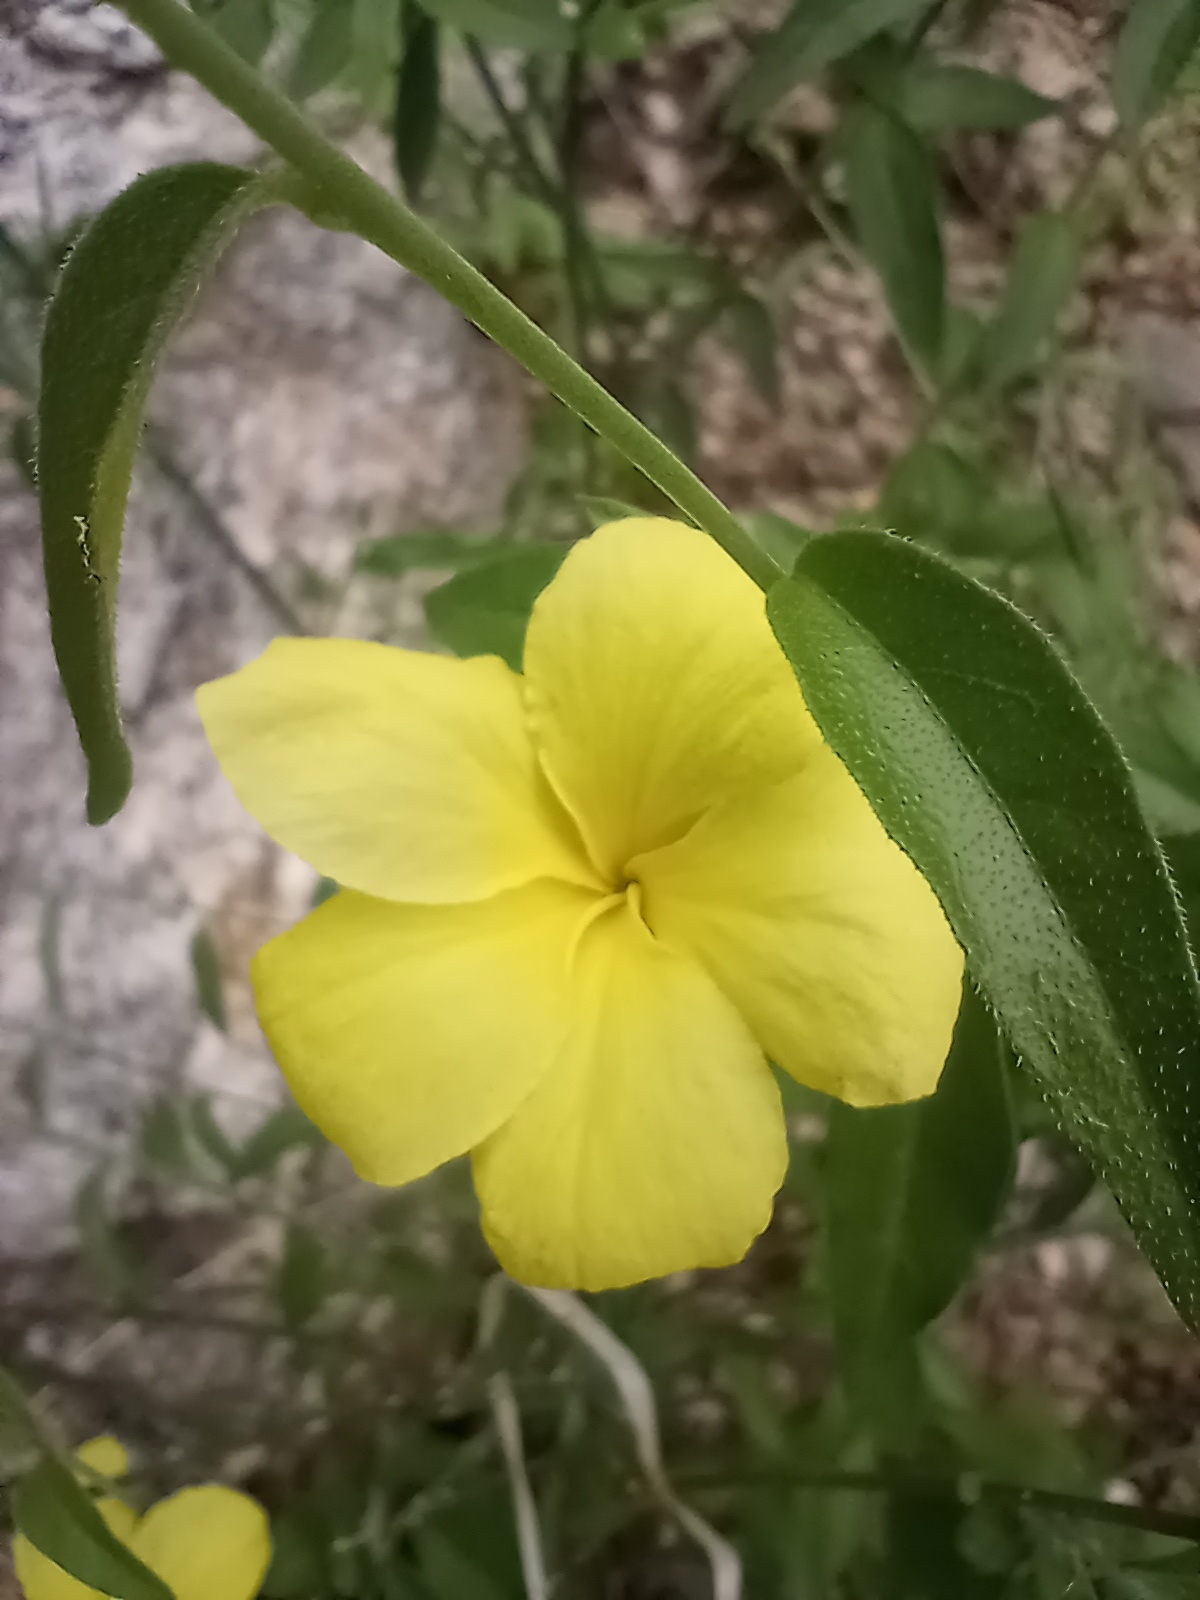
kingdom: Plantae
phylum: Tracheophyta
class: Magnoliopsida
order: Gentianales
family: Apocynaceae
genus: Haplophyton
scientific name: Haplophyton crooksii
